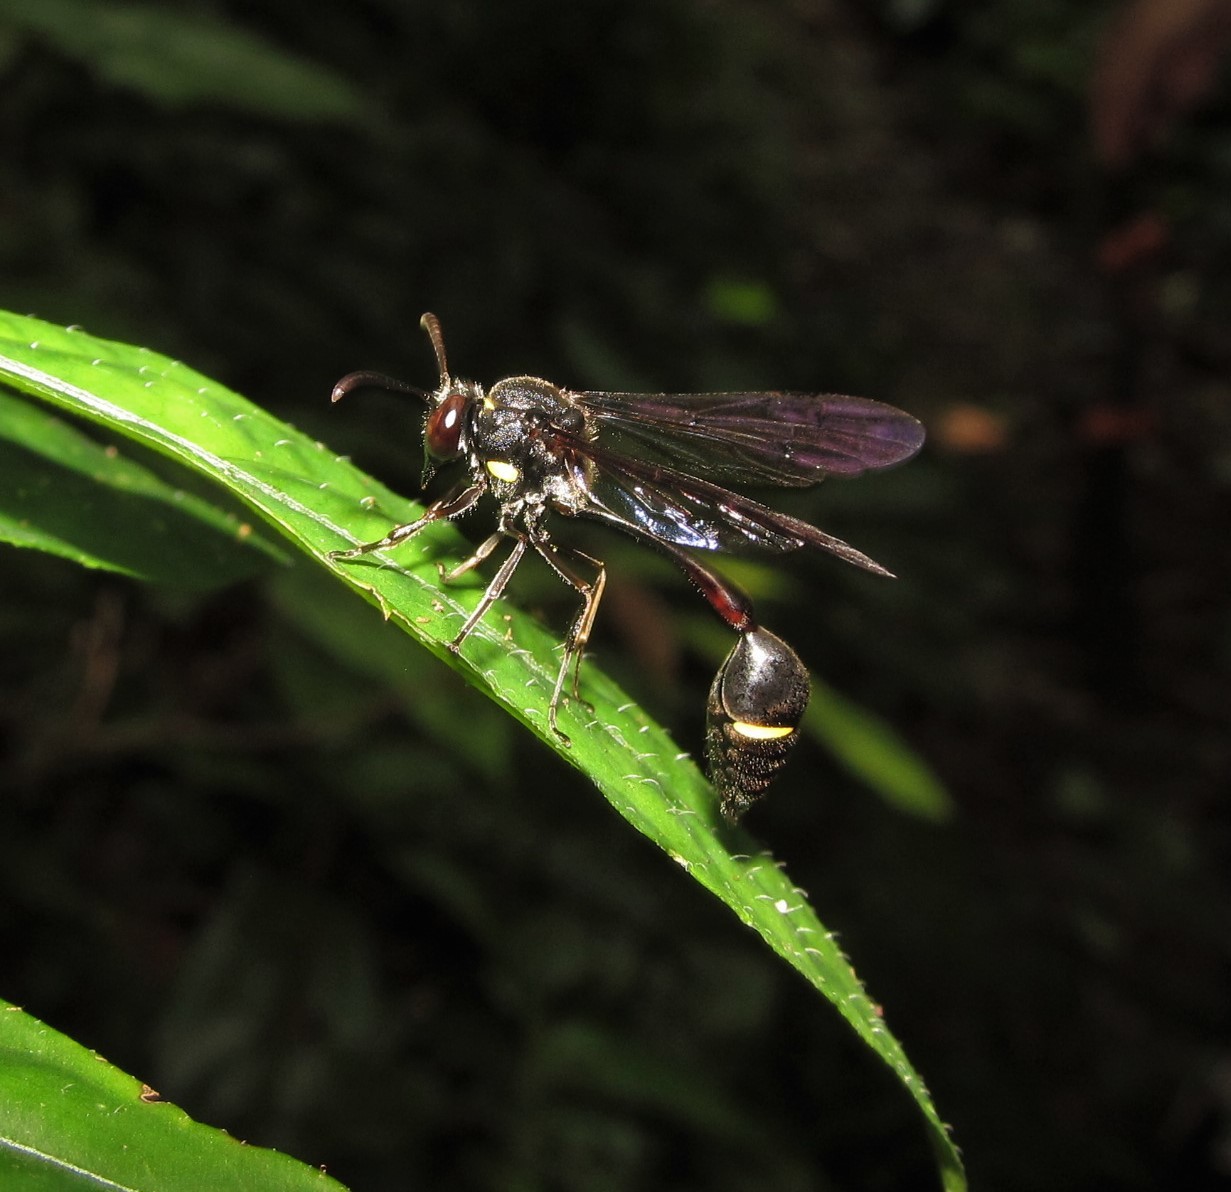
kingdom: Animalia
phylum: Arthropoda
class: Insecta
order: Hymenoptera
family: Vespidae
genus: Eustenogaster
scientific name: Eustenogaster nigra
